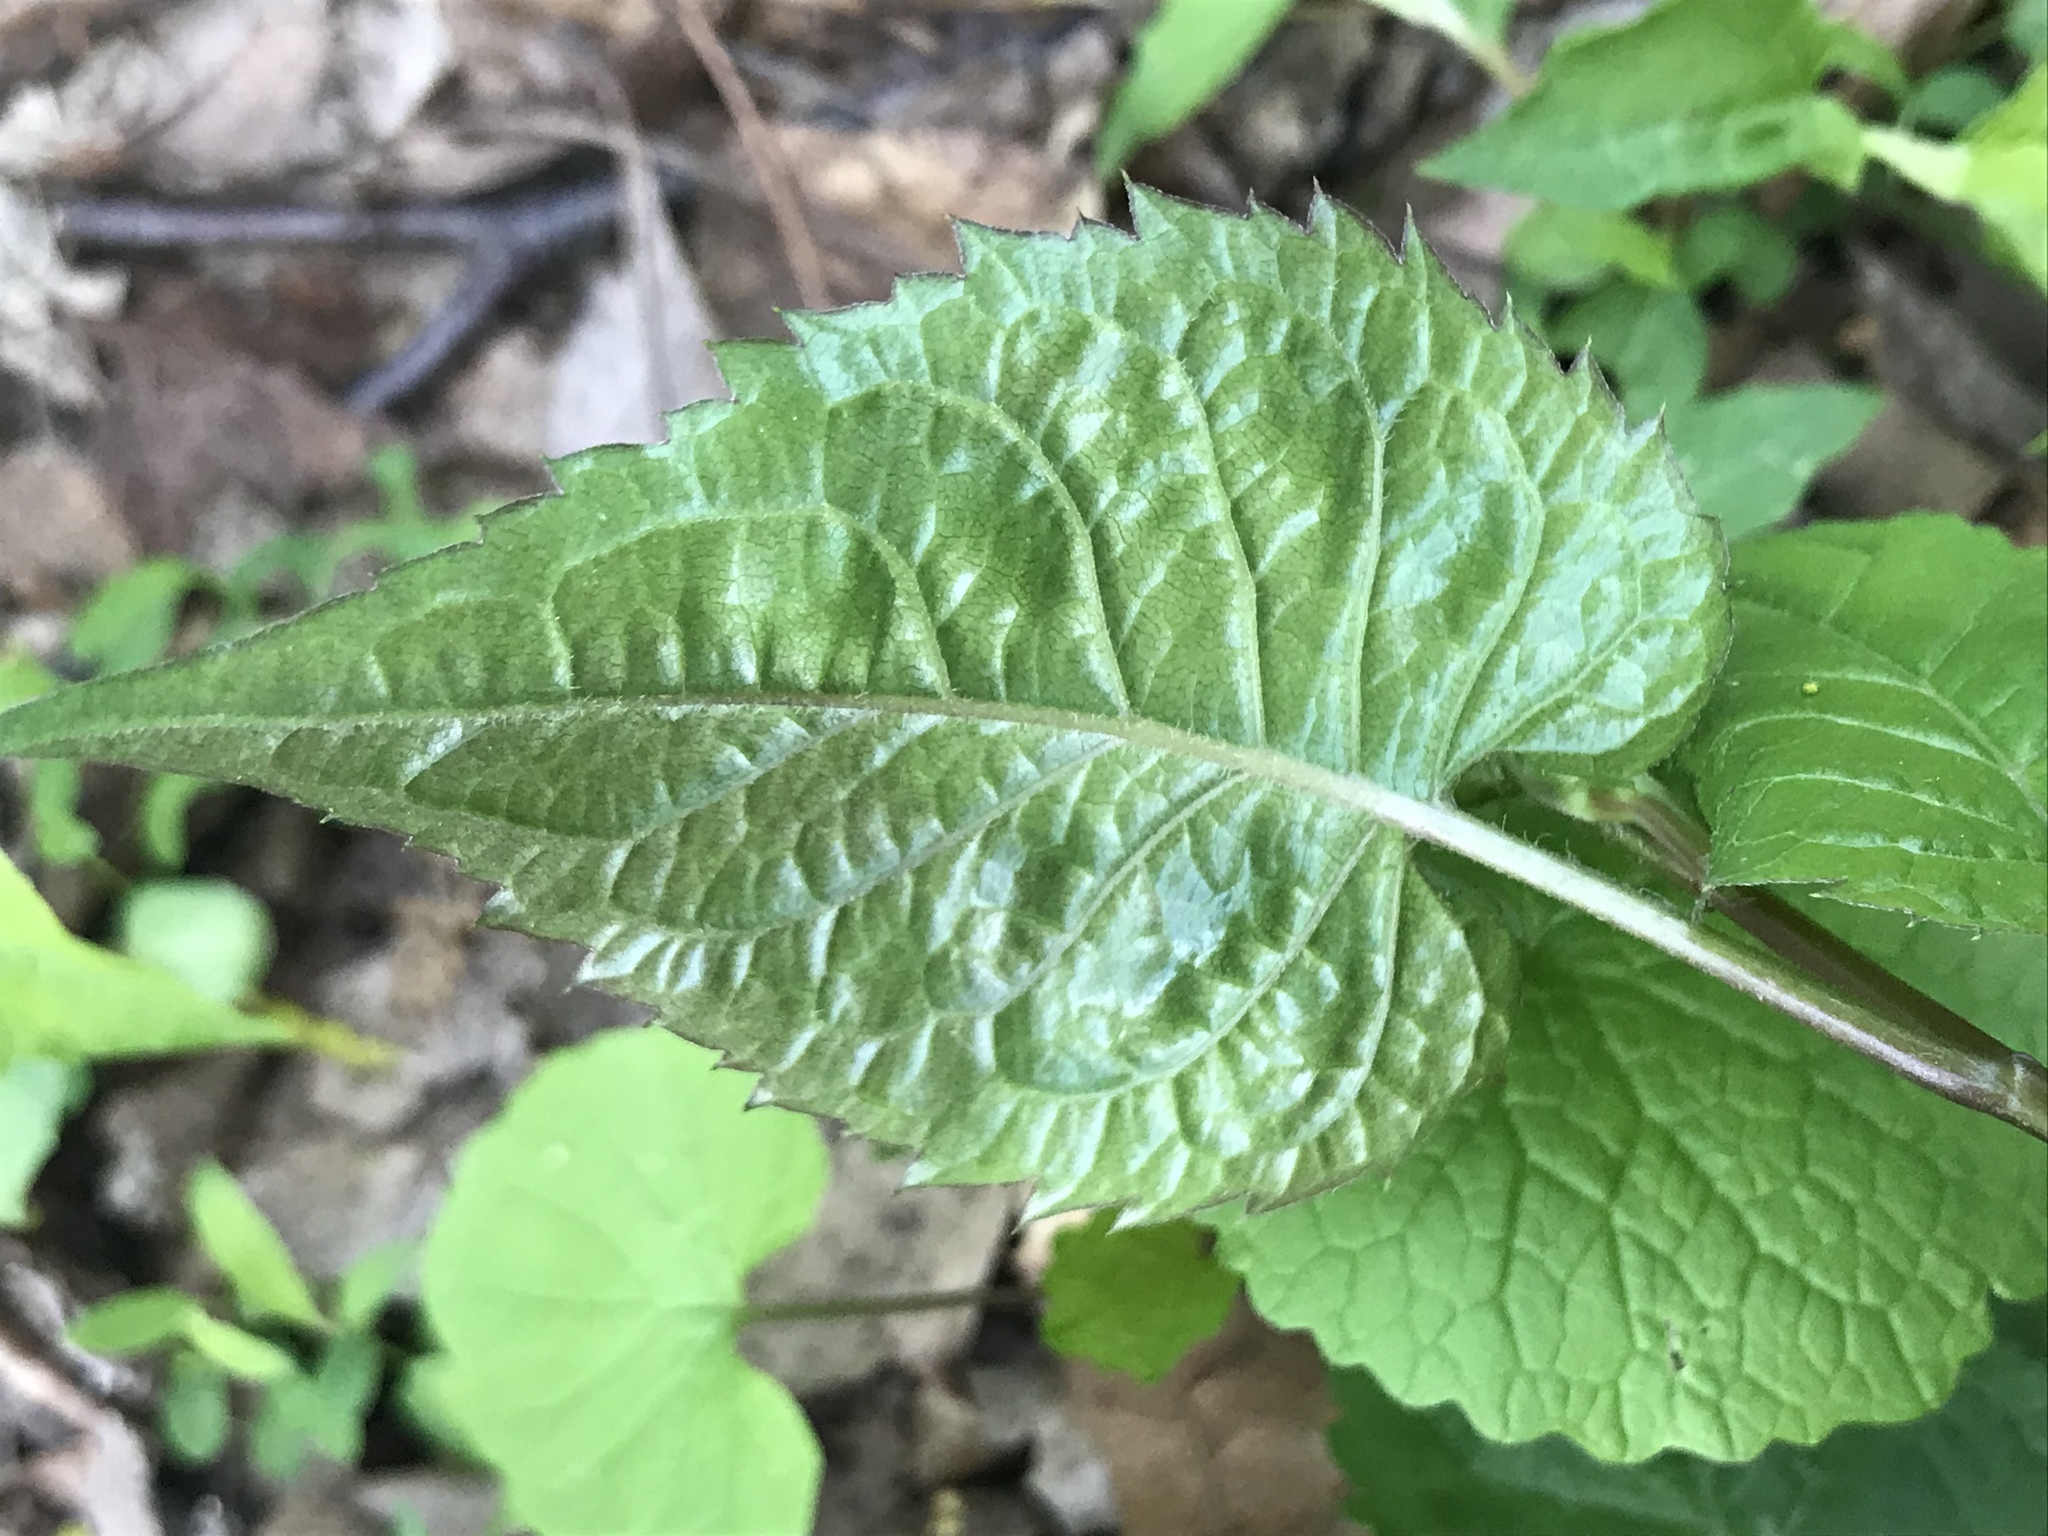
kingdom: Plantae
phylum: Tracheophyta
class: Magnoliopsida
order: Asterales
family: Asteraceae
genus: Eurybia
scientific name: Eurybia divaricata
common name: White wood aster
